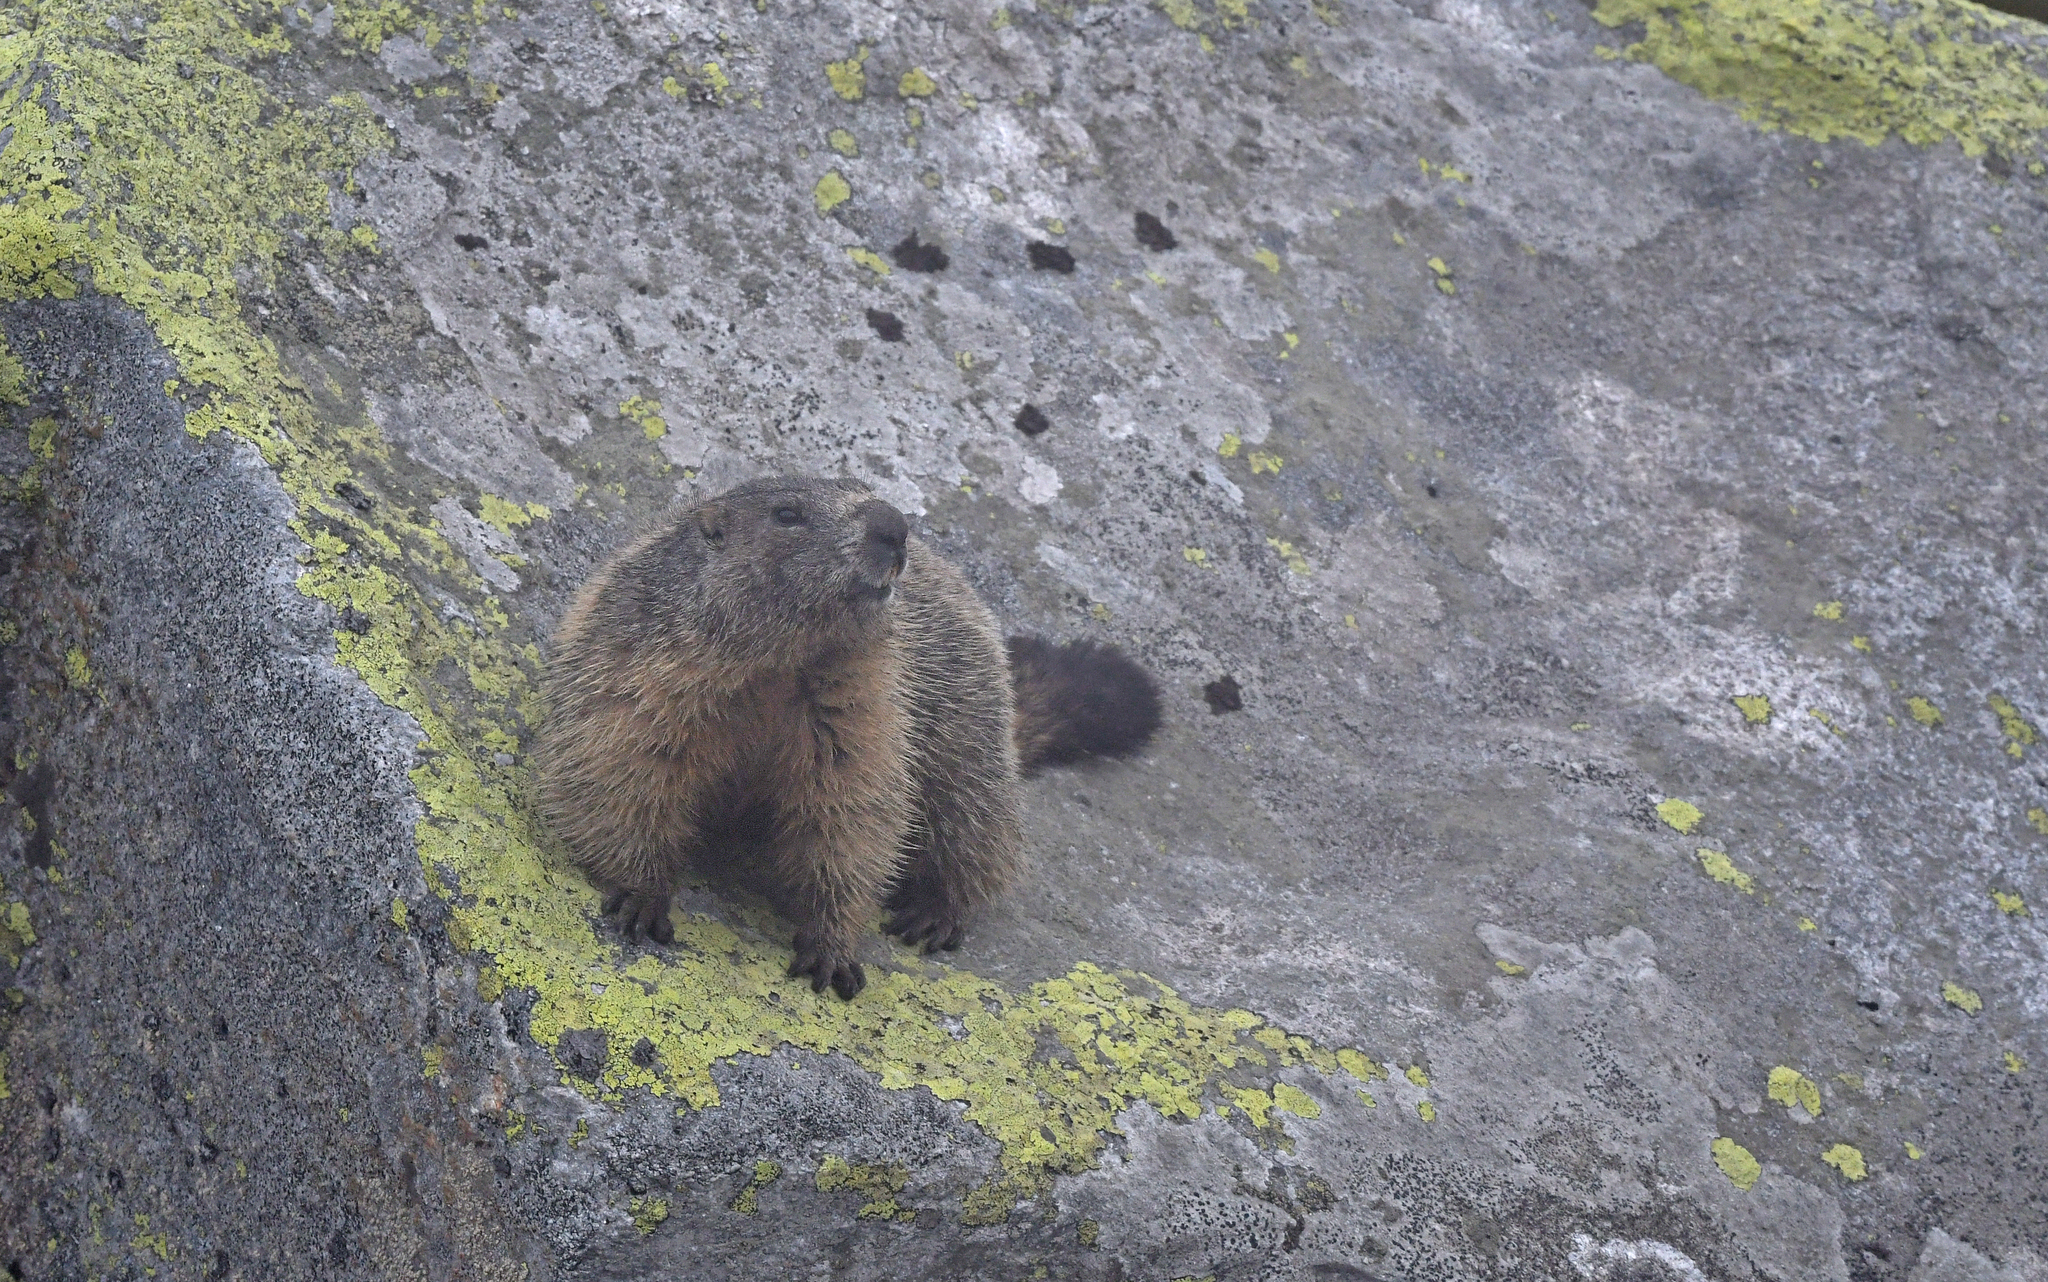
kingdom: Animalia
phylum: Chordata
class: Mammalia
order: Rodentia
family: Sciuridae
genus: Marmota
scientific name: Marmota marmota
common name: Alpine marmot
